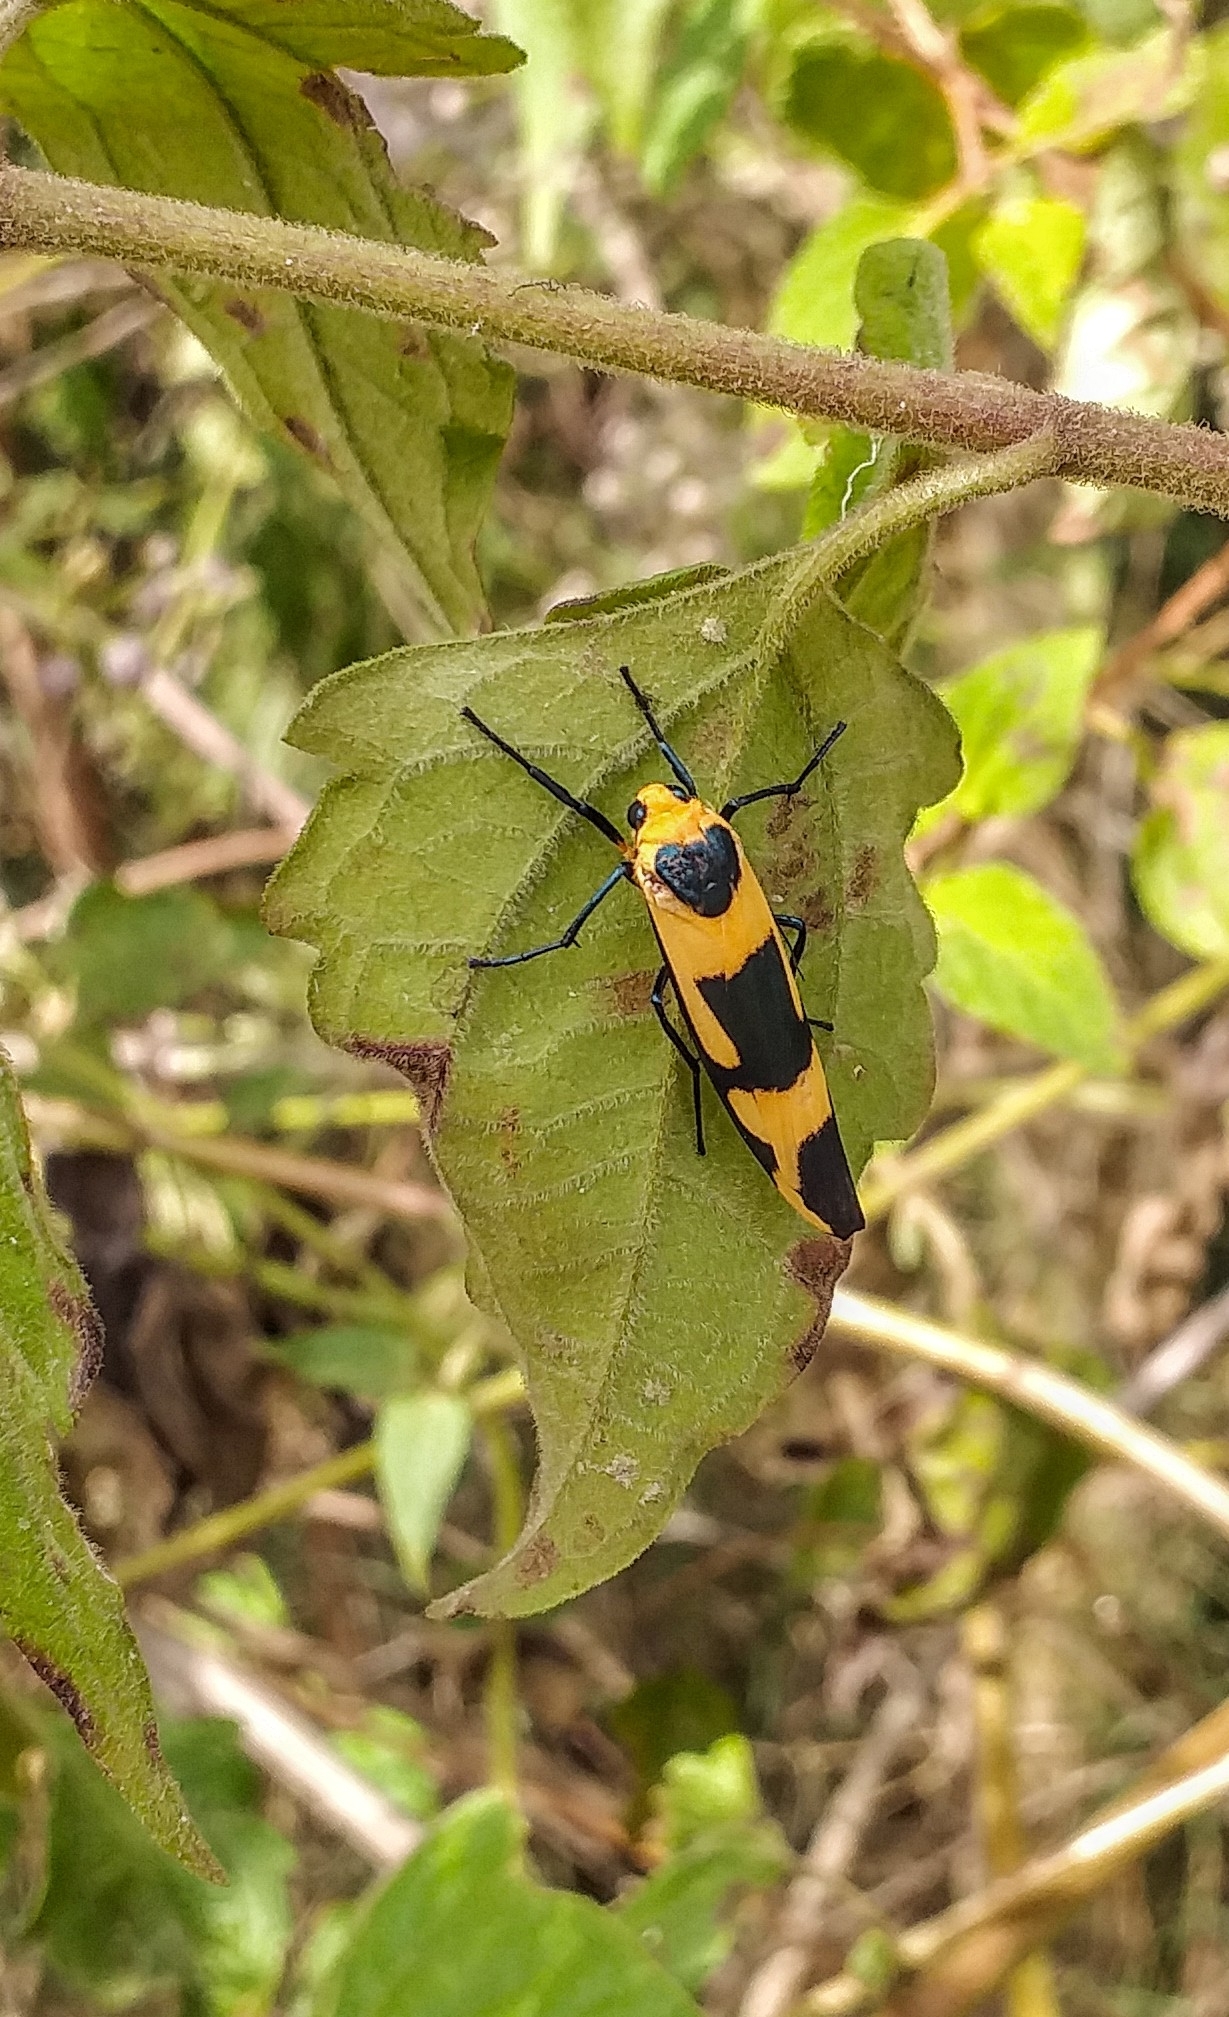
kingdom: Animalia
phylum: Arthropoda
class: Insecta
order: Lepidoptera
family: Erebidae
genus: Oeonistis
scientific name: Oeonistis entella
